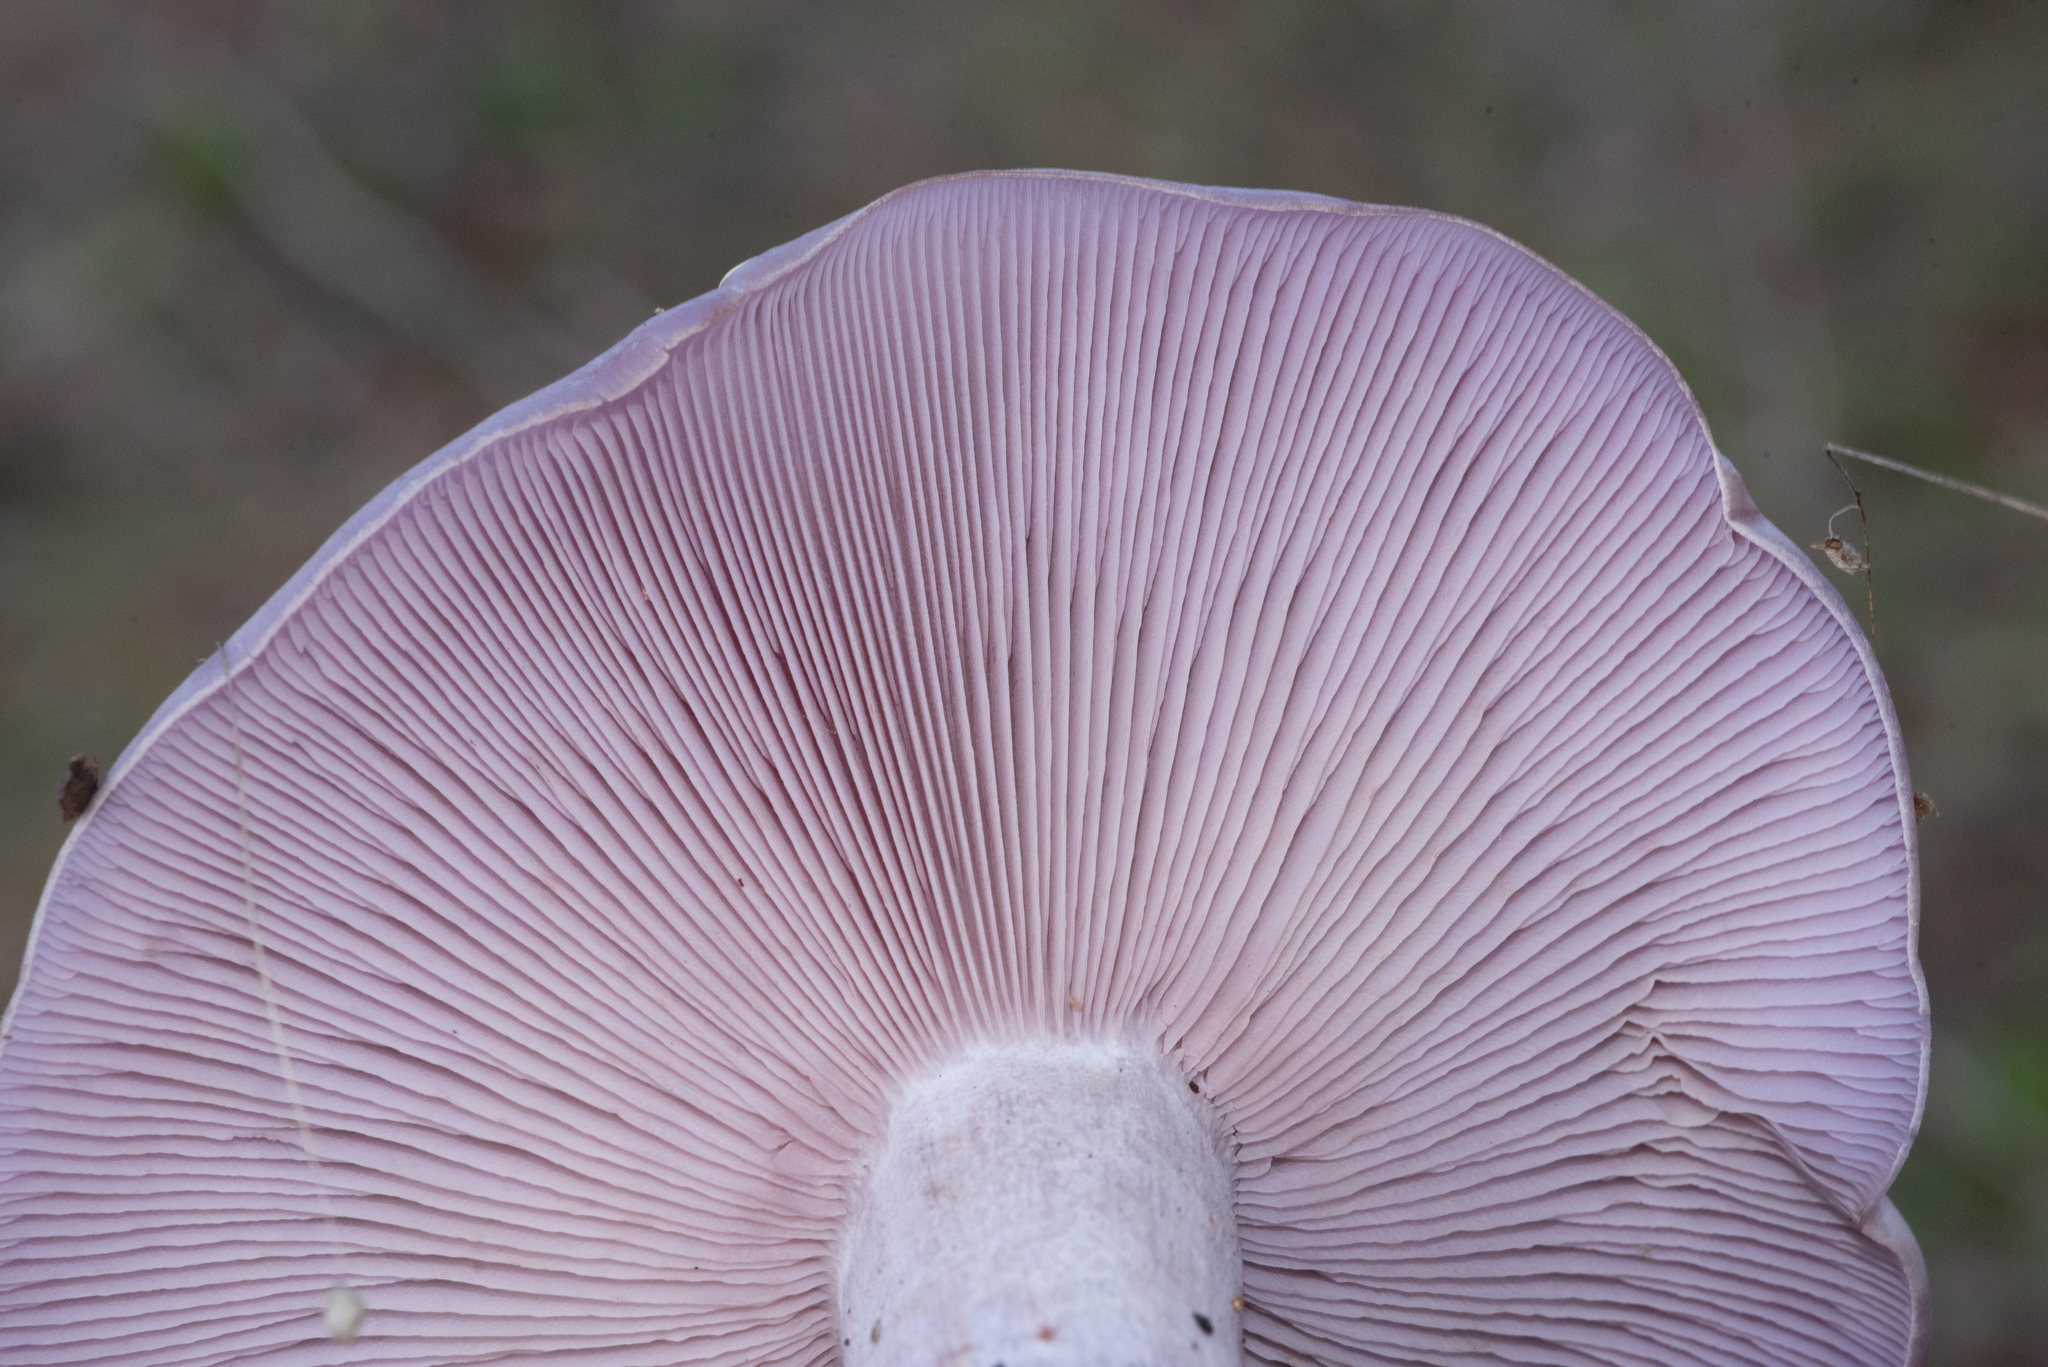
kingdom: Fungi
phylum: Basidiomycota
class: Agaricomycetes
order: Agaricales
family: Tricholomataceae
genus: Collybia
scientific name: Collybia
